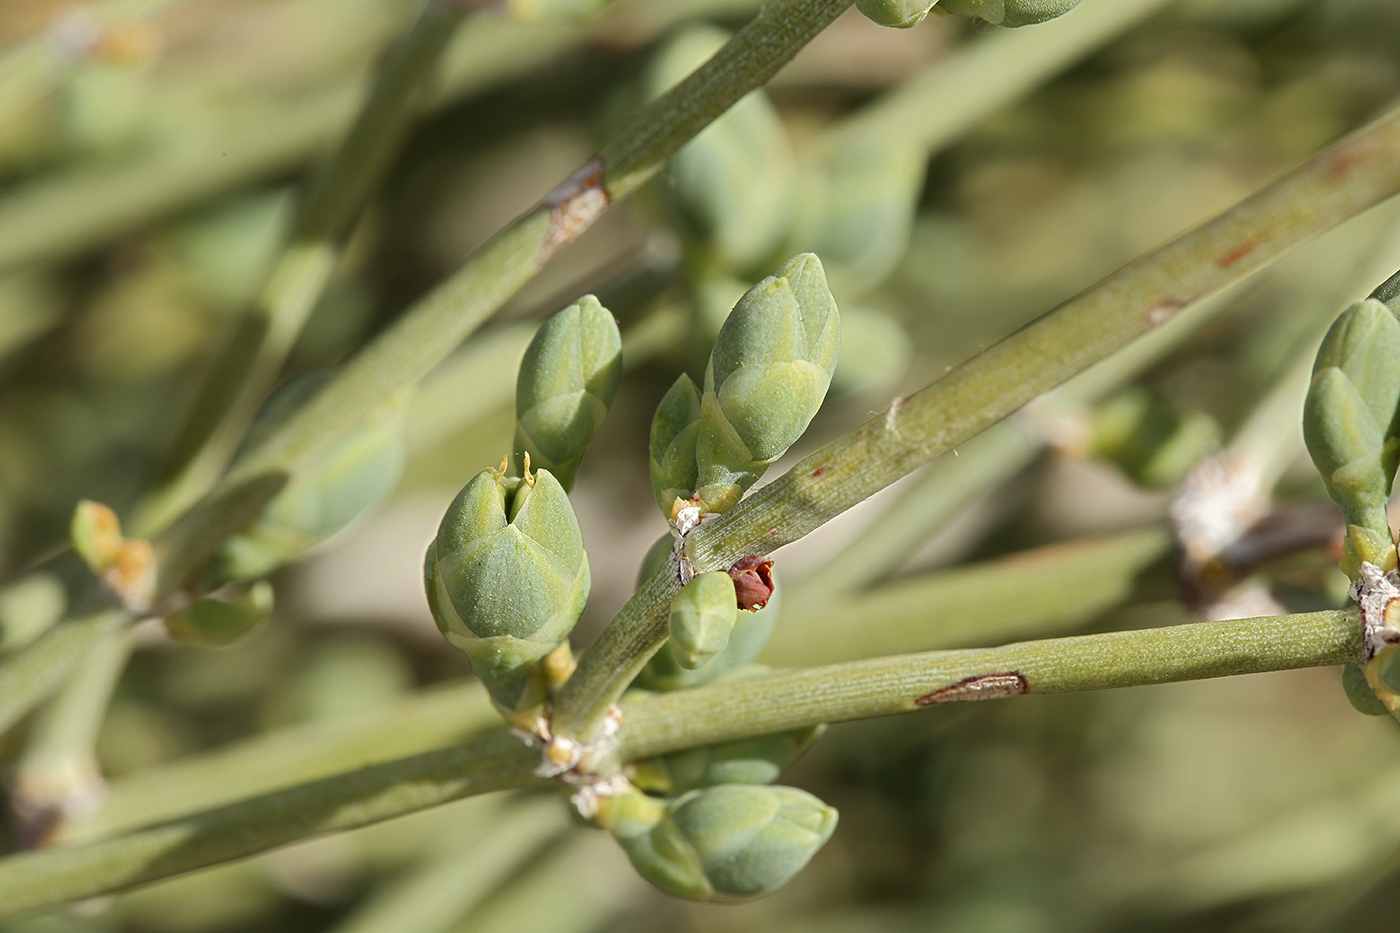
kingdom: Plantae
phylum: Tracheophyta
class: Gnetopsida
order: Ephedrales
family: Ephedraceae
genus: Ephedra
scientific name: Ephedra nevadensis
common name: Gray ephedra
